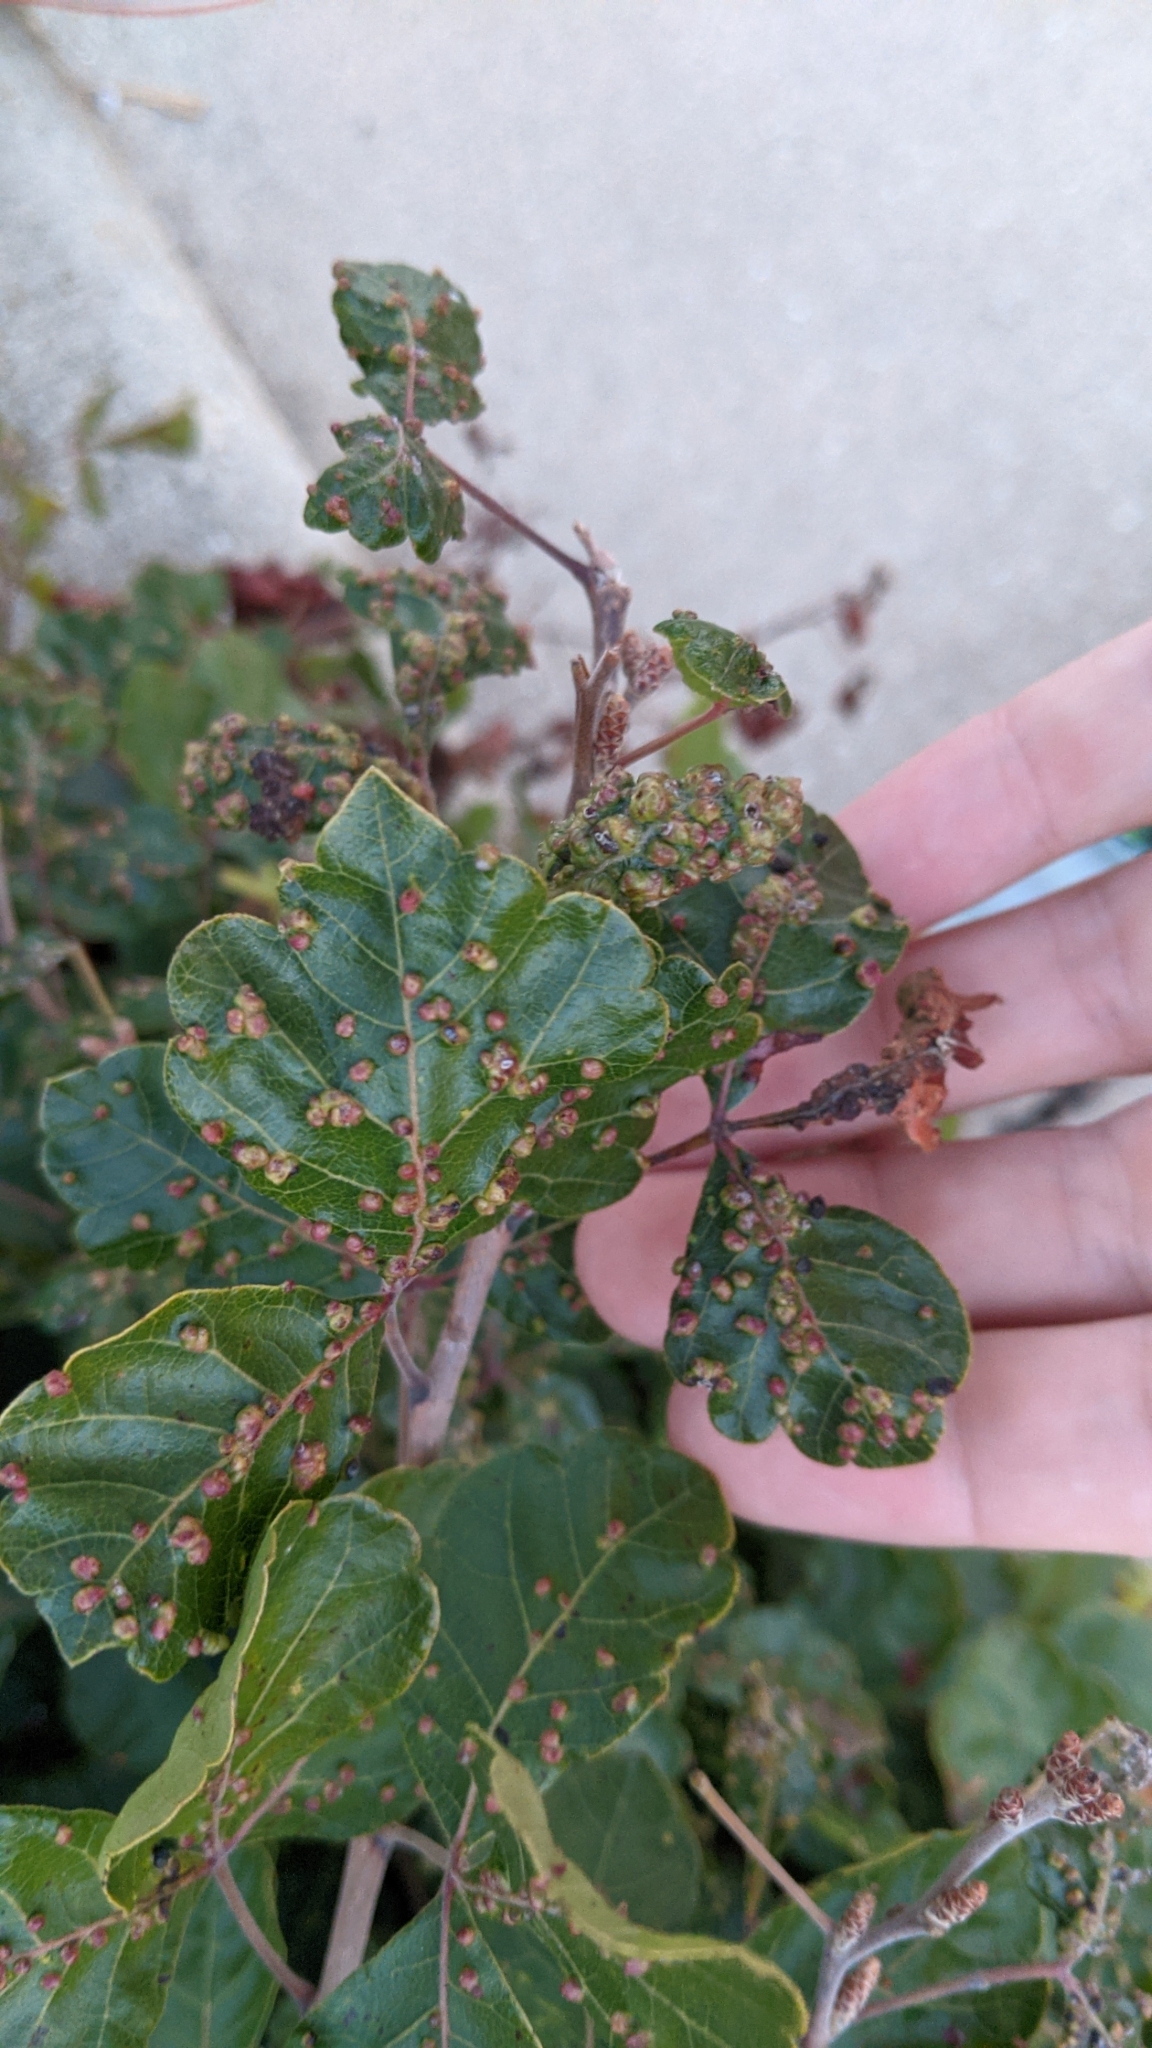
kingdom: Animalia
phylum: Arthropoda
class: Arachnida
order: Trombidiformes
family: Eriophyidae
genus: Aculops
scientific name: Aculops
